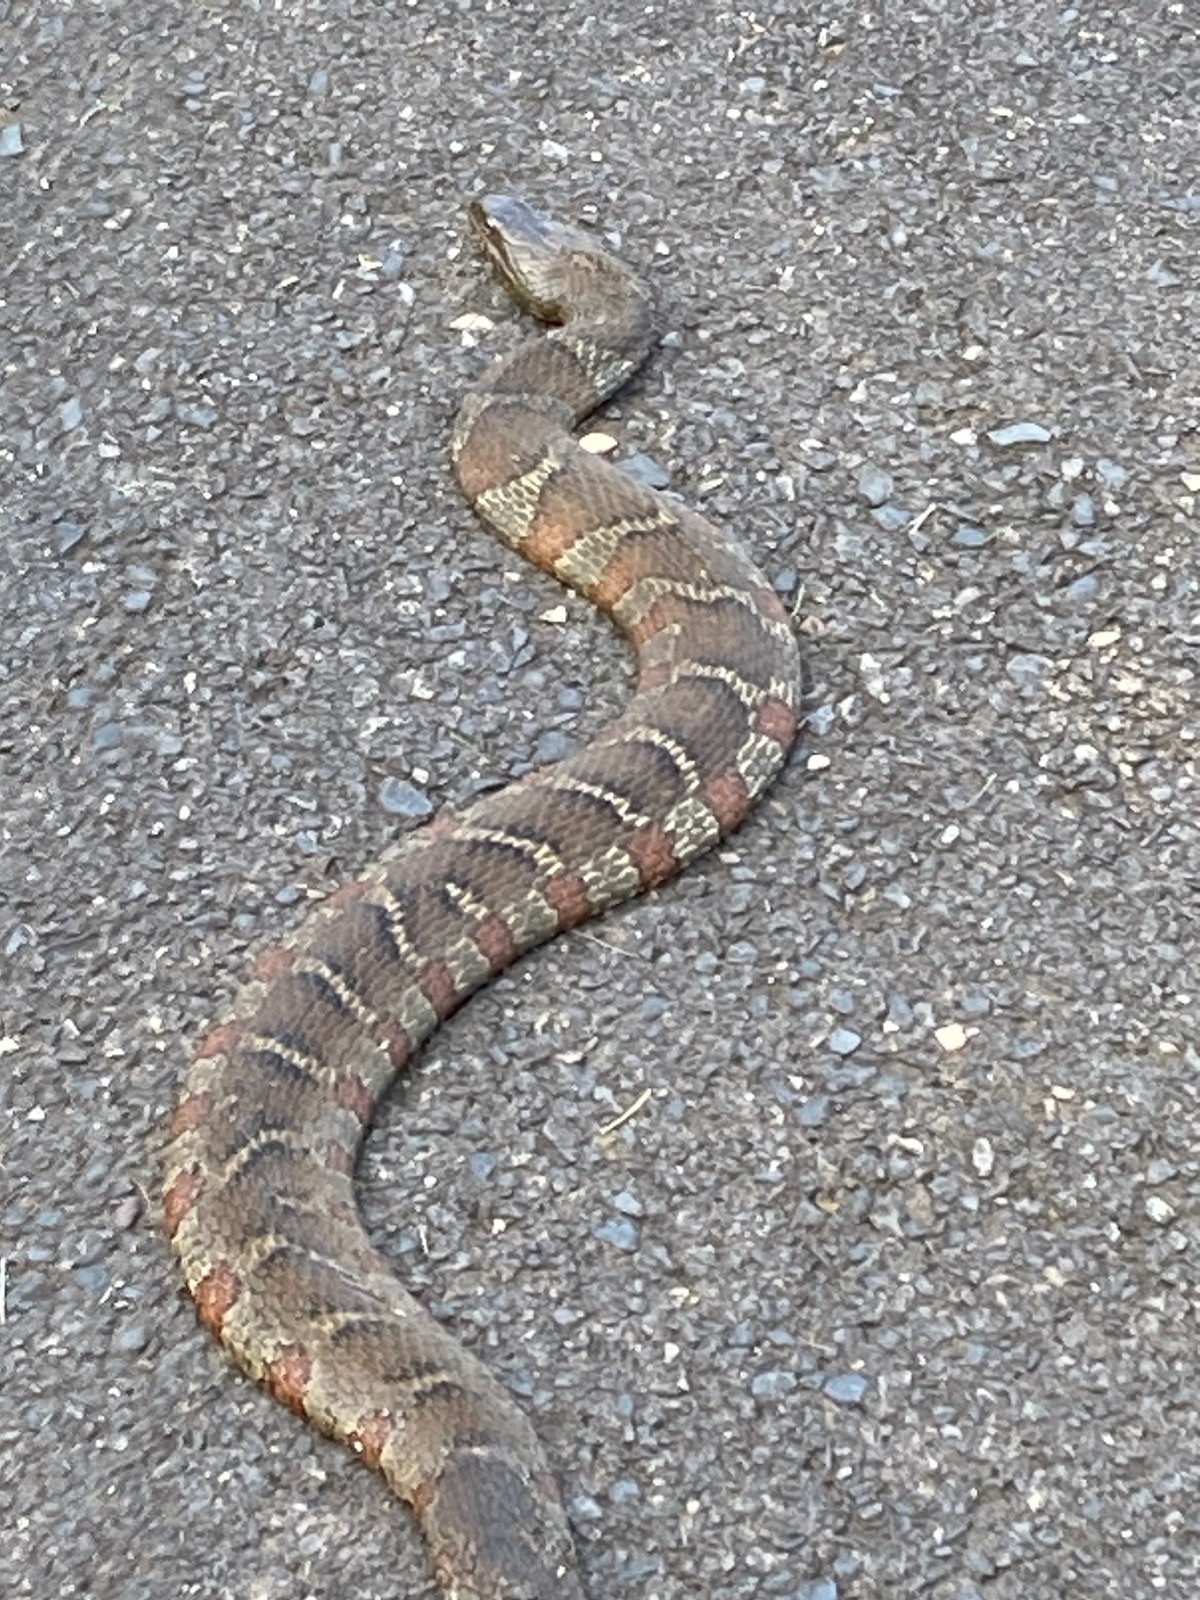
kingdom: Animalia
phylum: Chordata
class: Squamata
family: Colubridae
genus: Nerodia
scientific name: Nerodia sipedon
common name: Northern water snake
